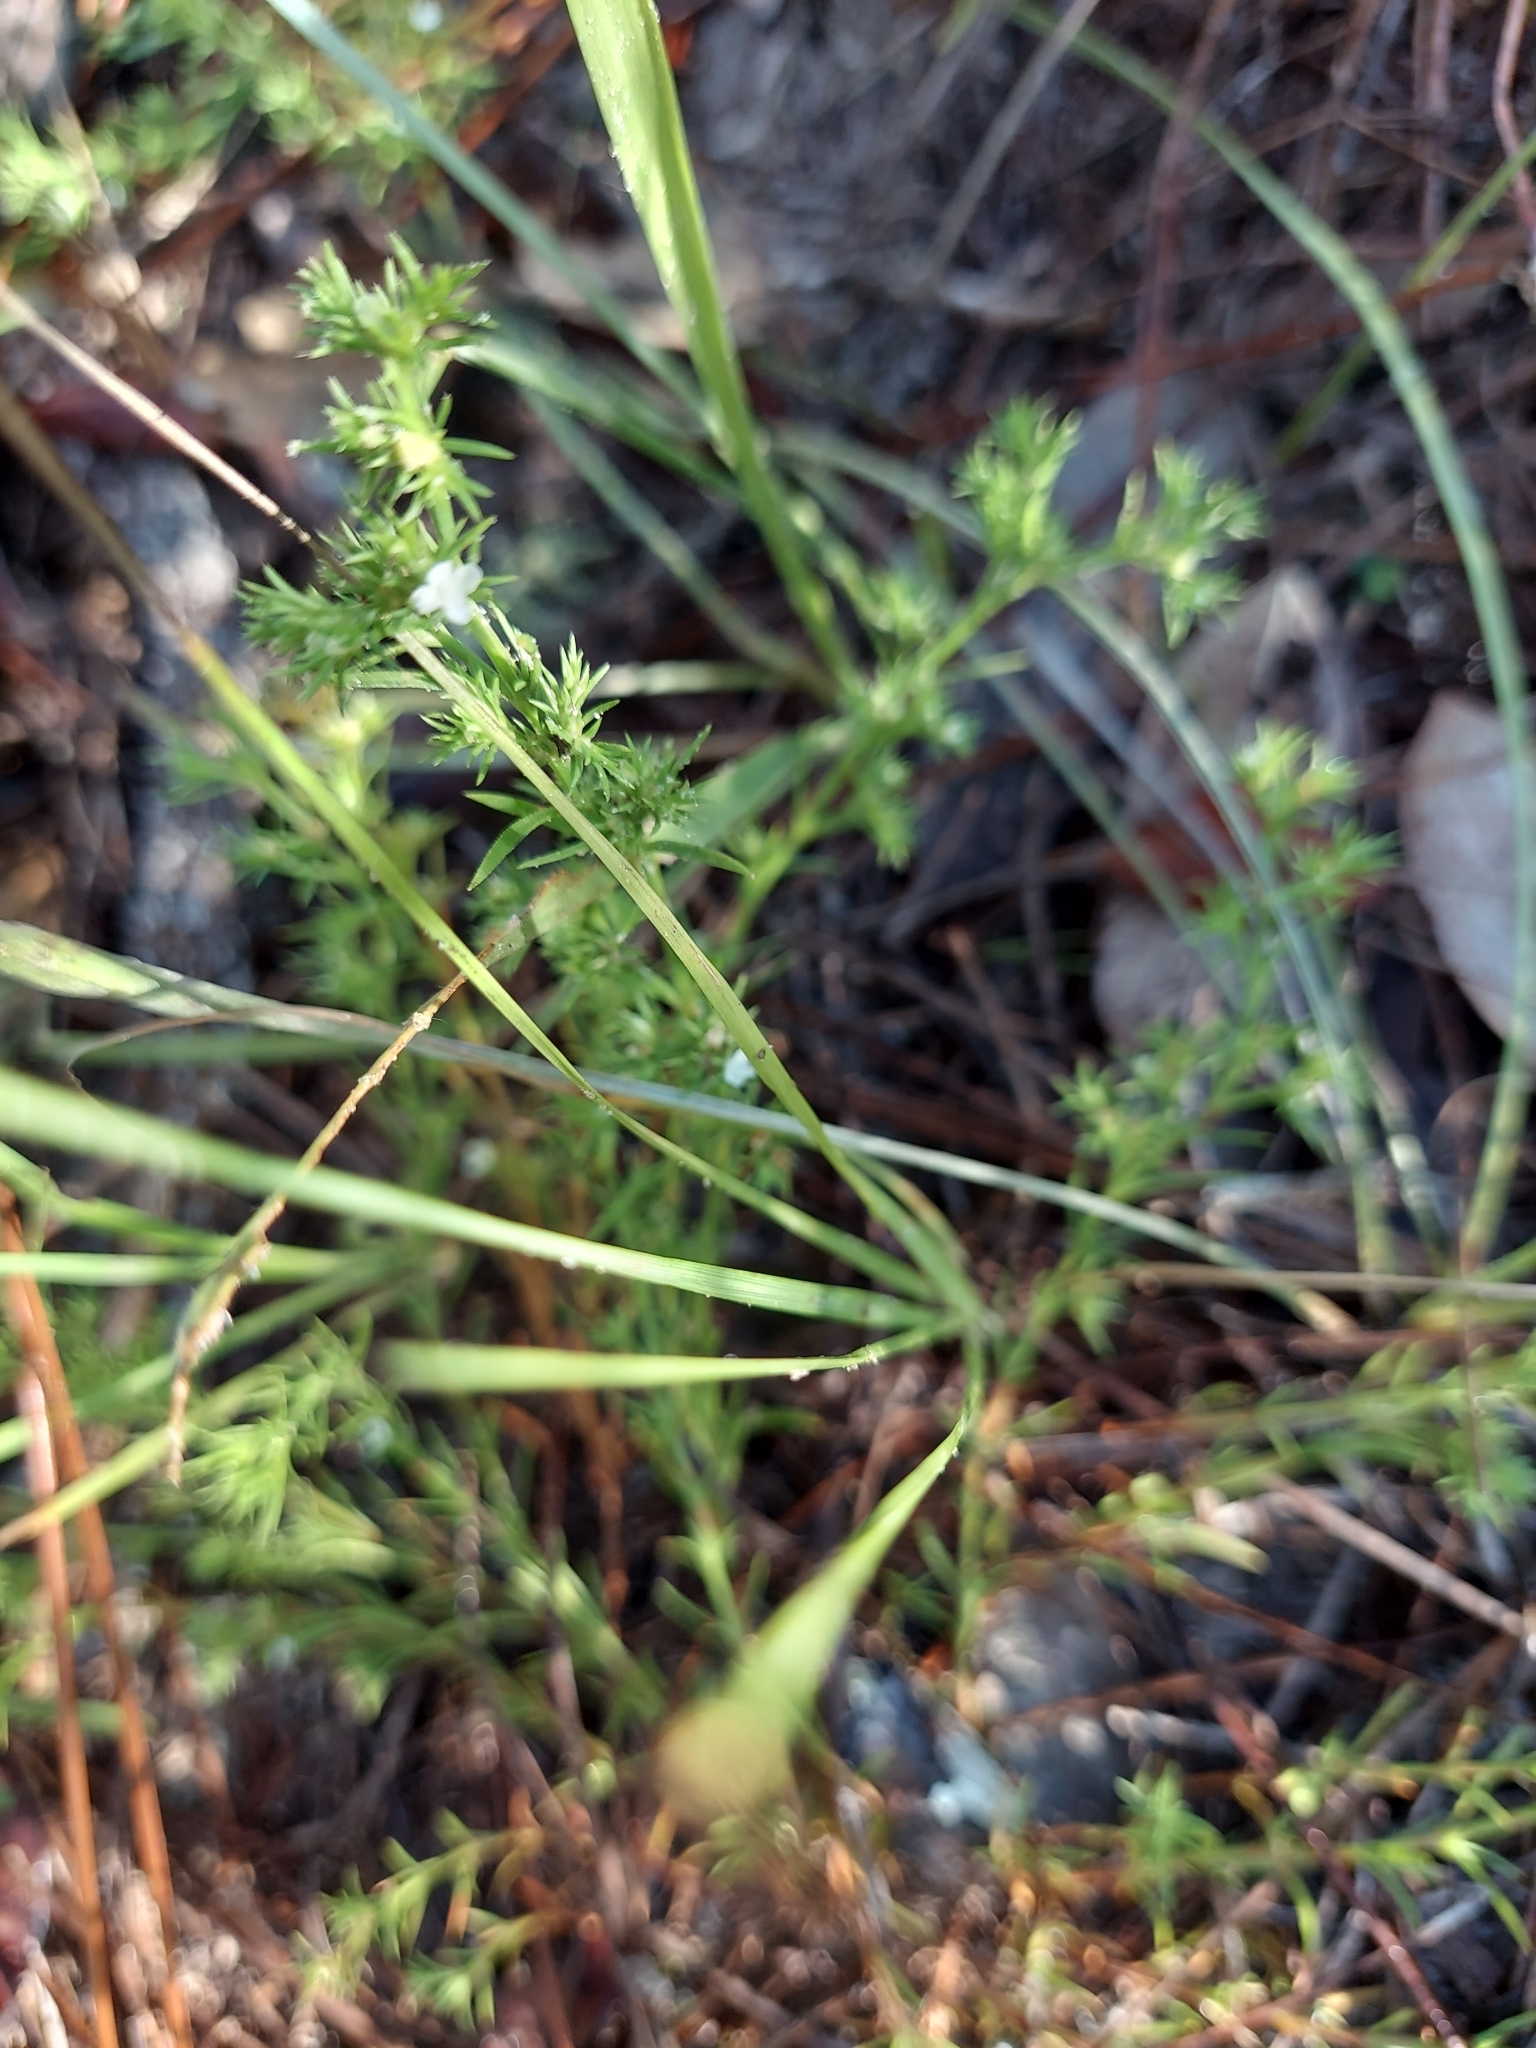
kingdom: Plantae
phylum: Tracheophyta
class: Magnoliopsida
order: Lamiales
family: Tetrachondraceae
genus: Polypremum
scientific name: Polypremum procumbens
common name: Juniper-leaf
